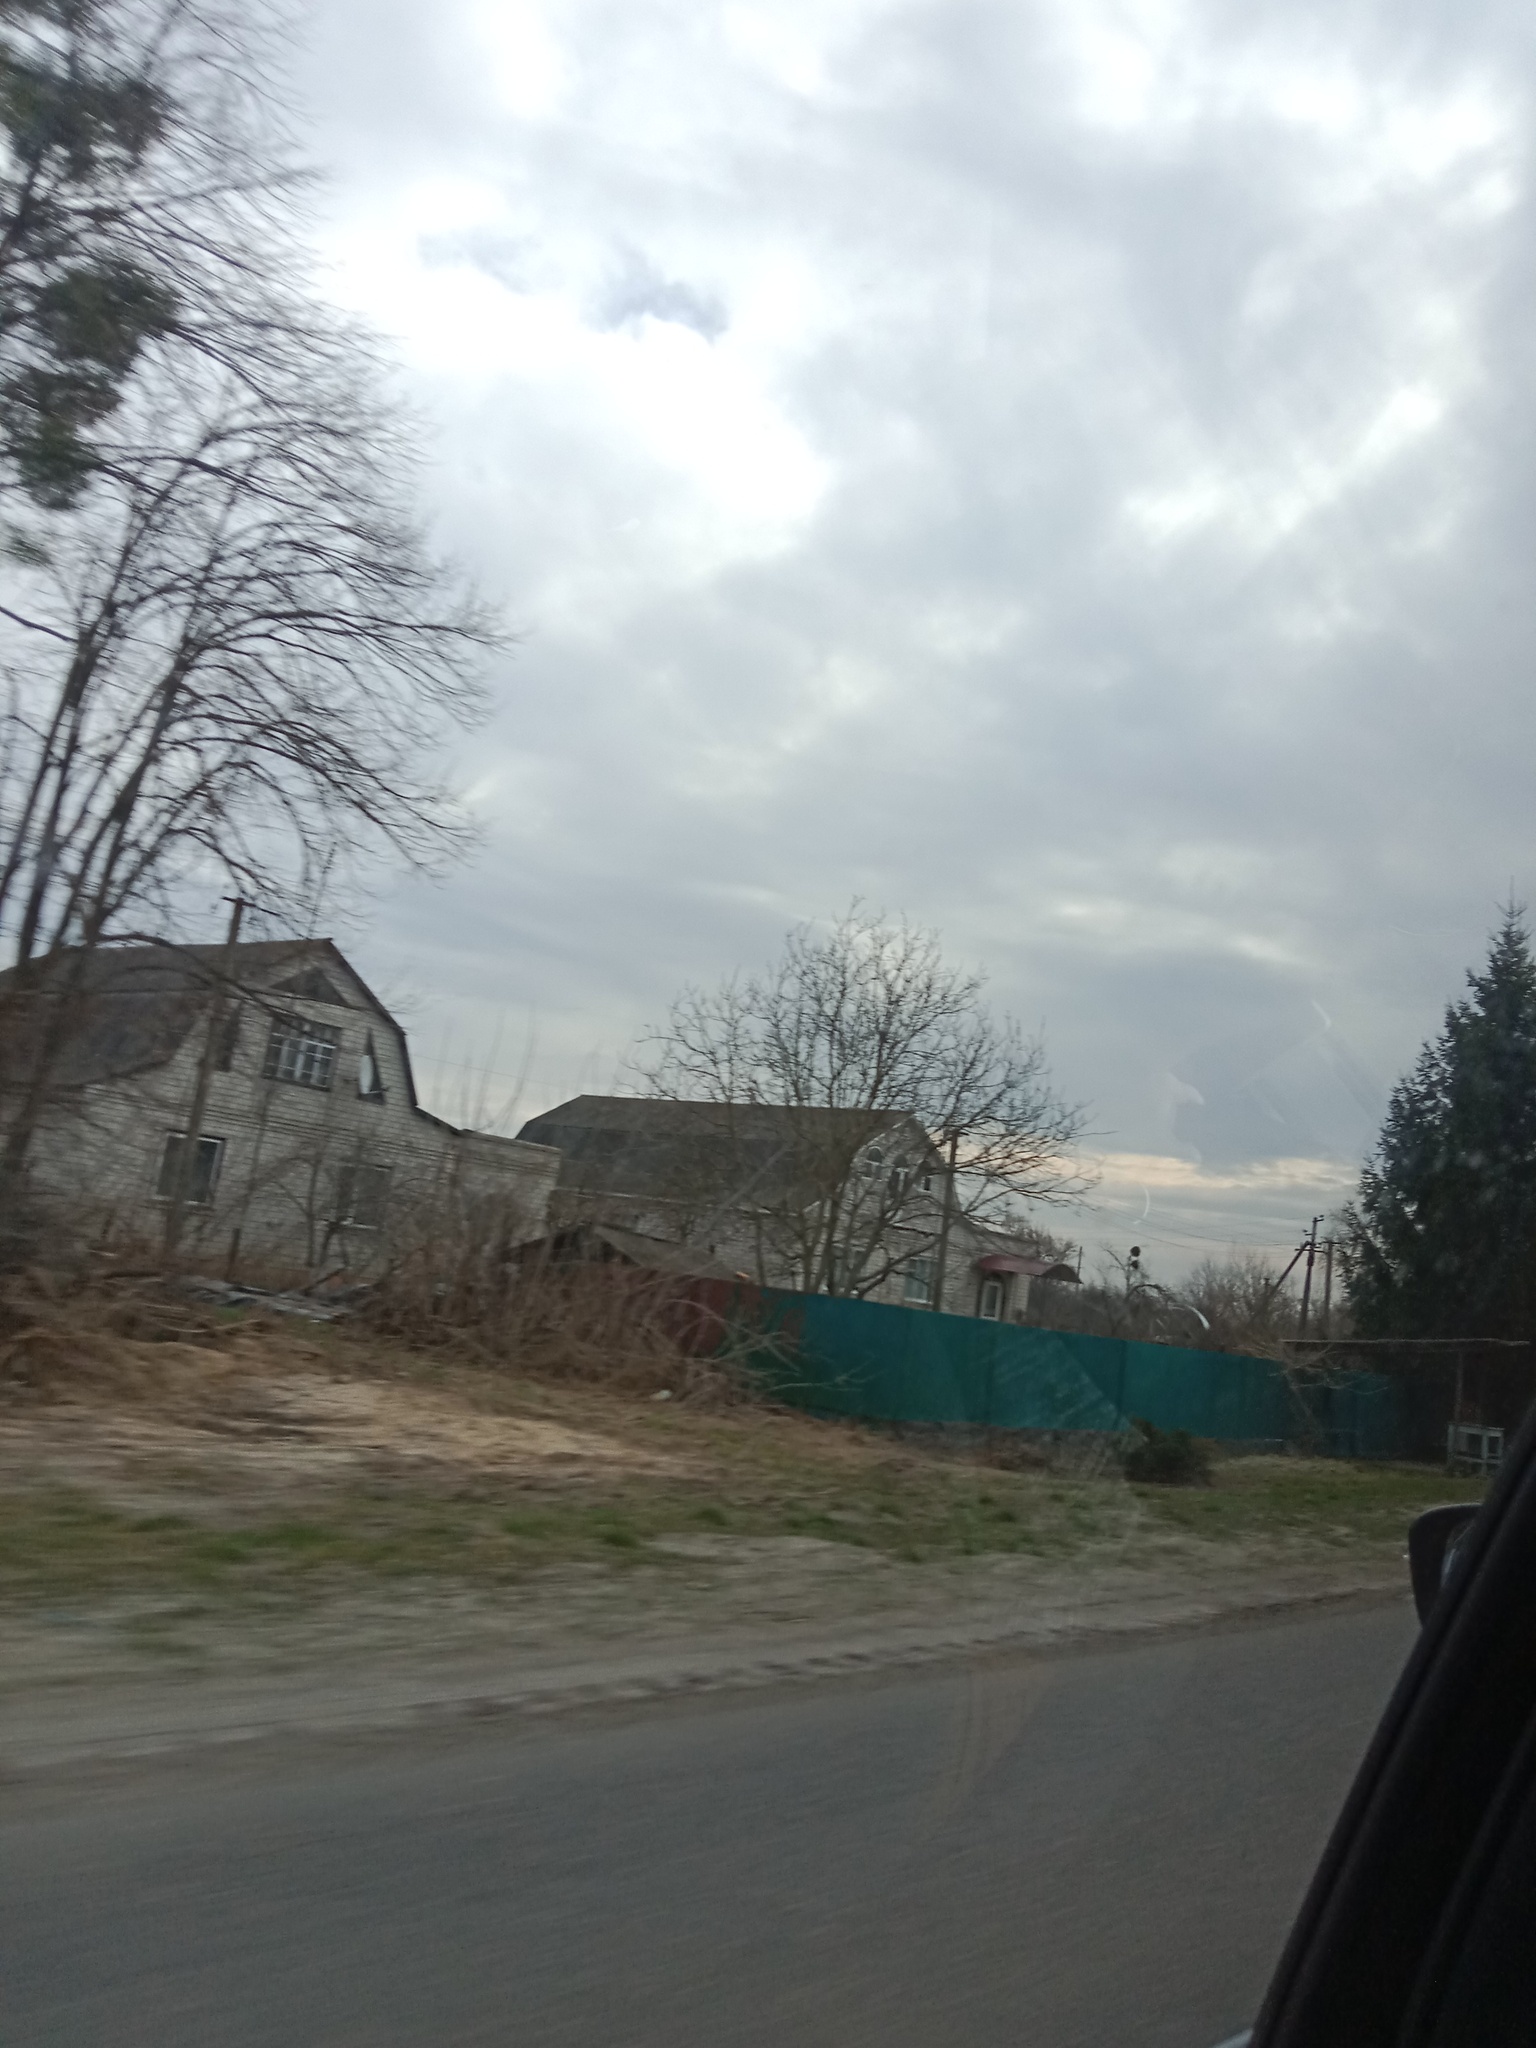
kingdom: Plantae
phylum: Tracheophyta
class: Magnoliopsida
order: Santalales
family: Viscaceae
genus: Viscum
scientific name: Viscum album
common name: Mistletoe
